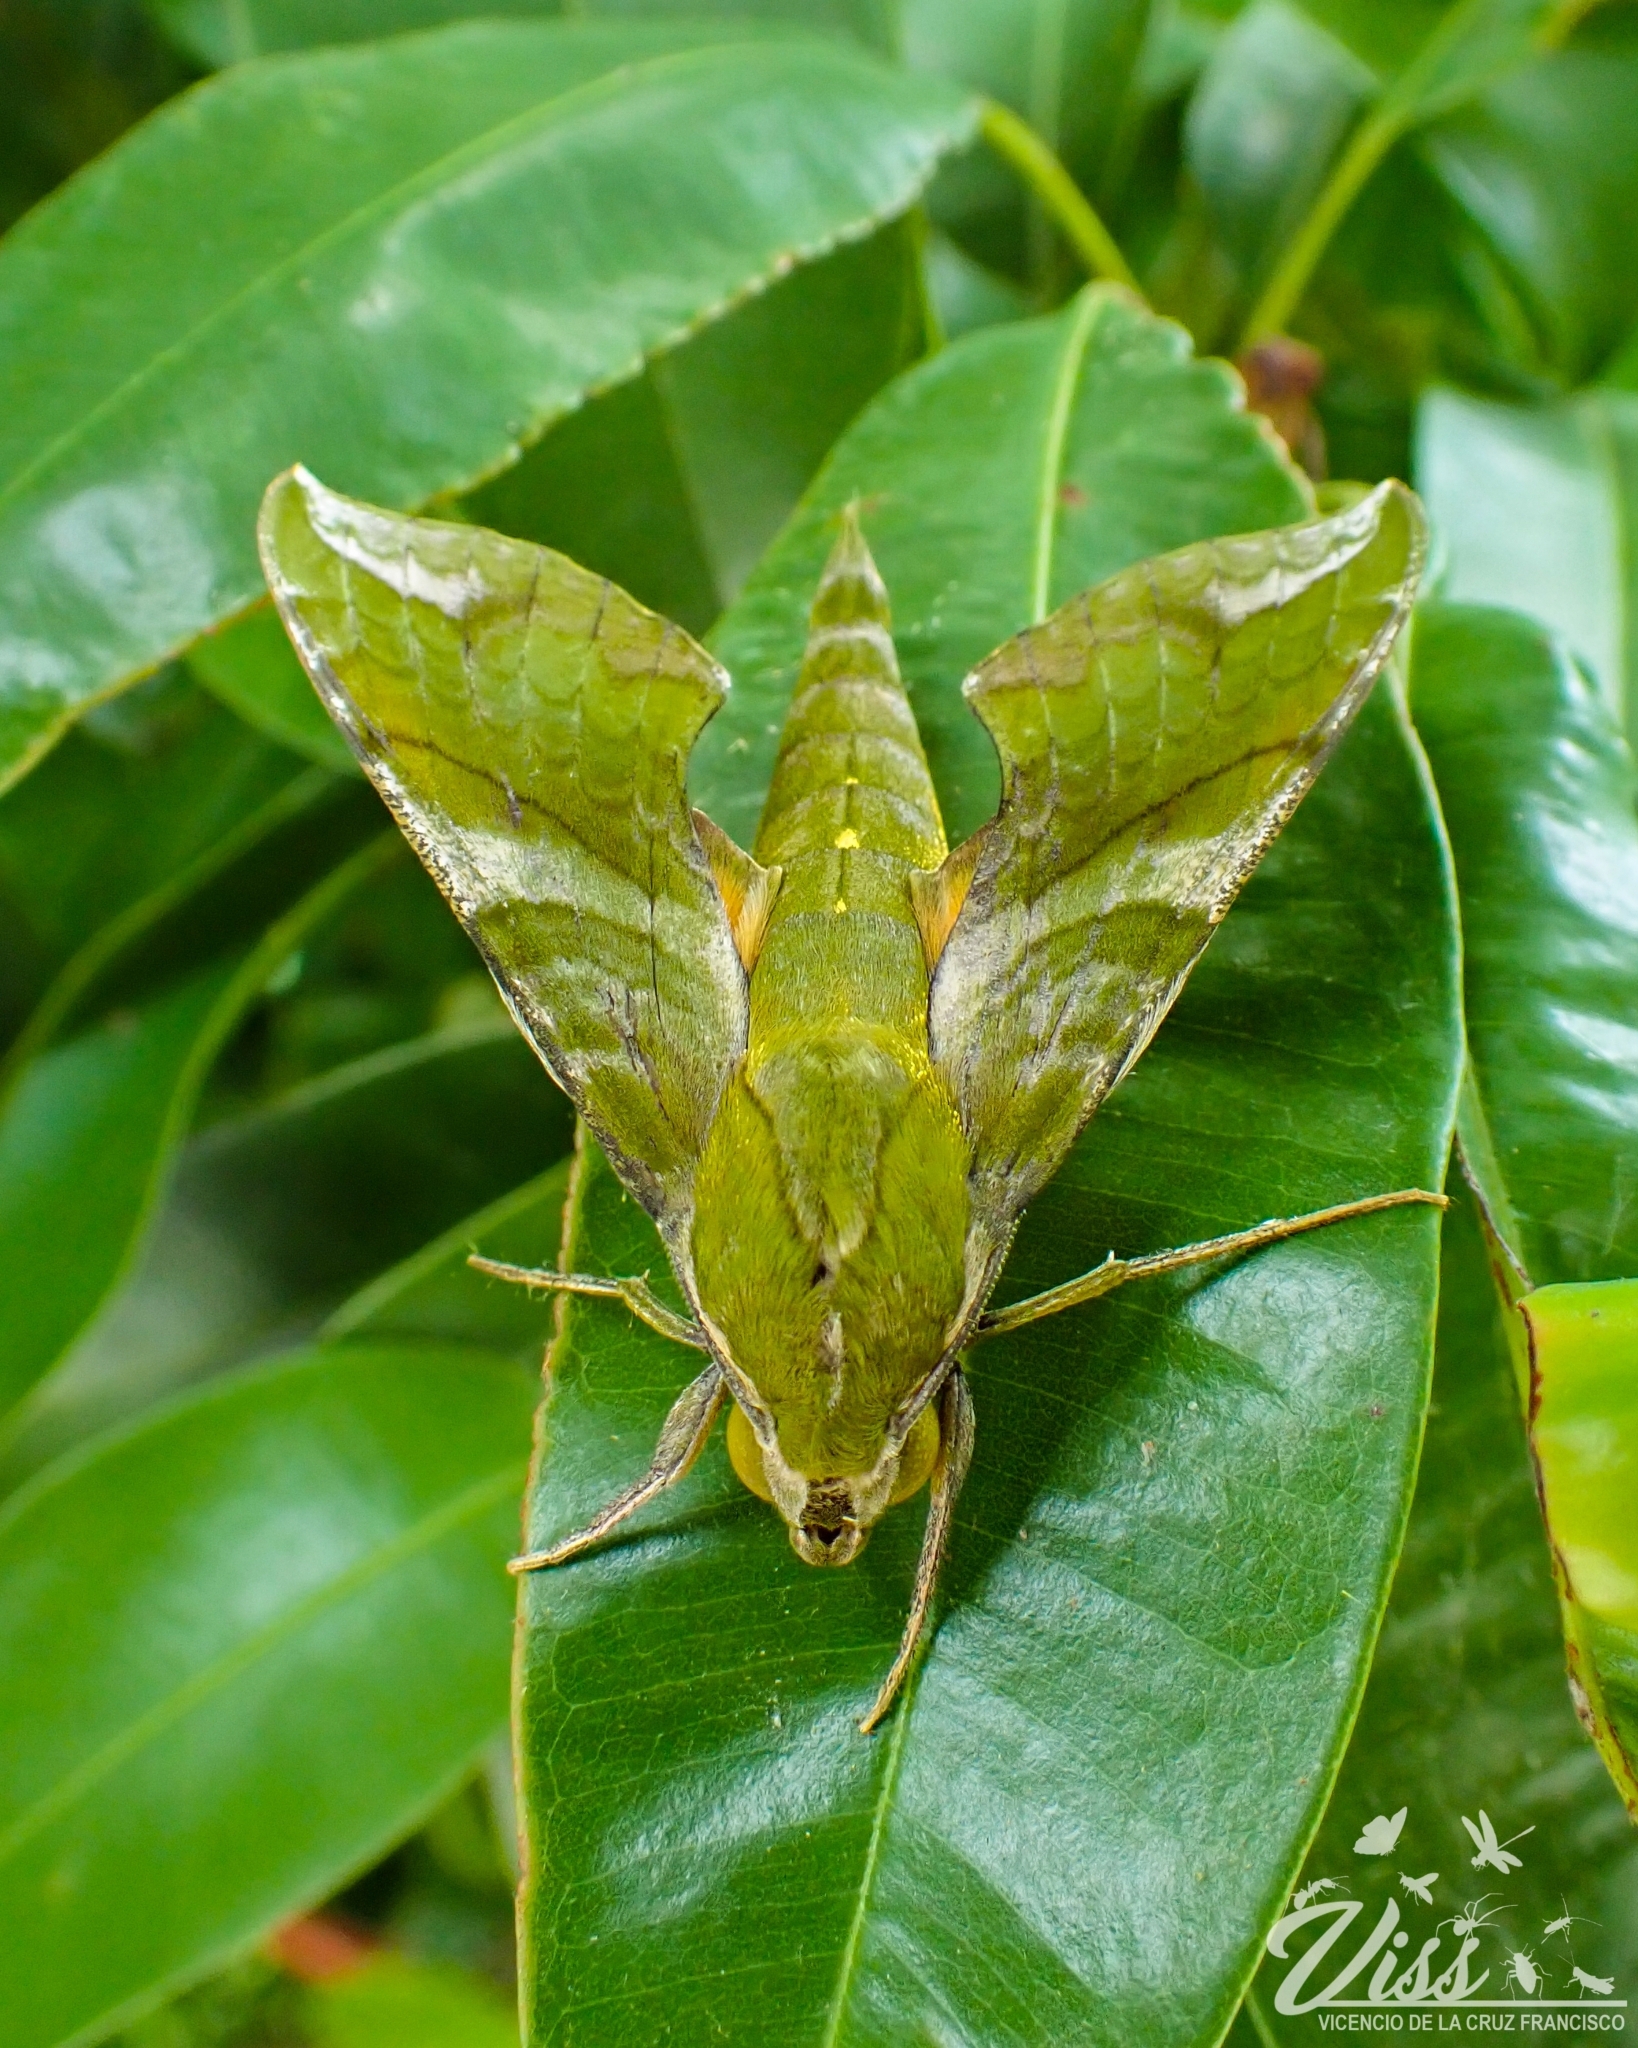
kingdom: Animalia
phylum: Arthropoda
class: Insecta
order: Lepidoptera
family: Sphingidae
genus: Xylophanes
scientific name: Xylophanes pluto
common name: Pluto sphinx
